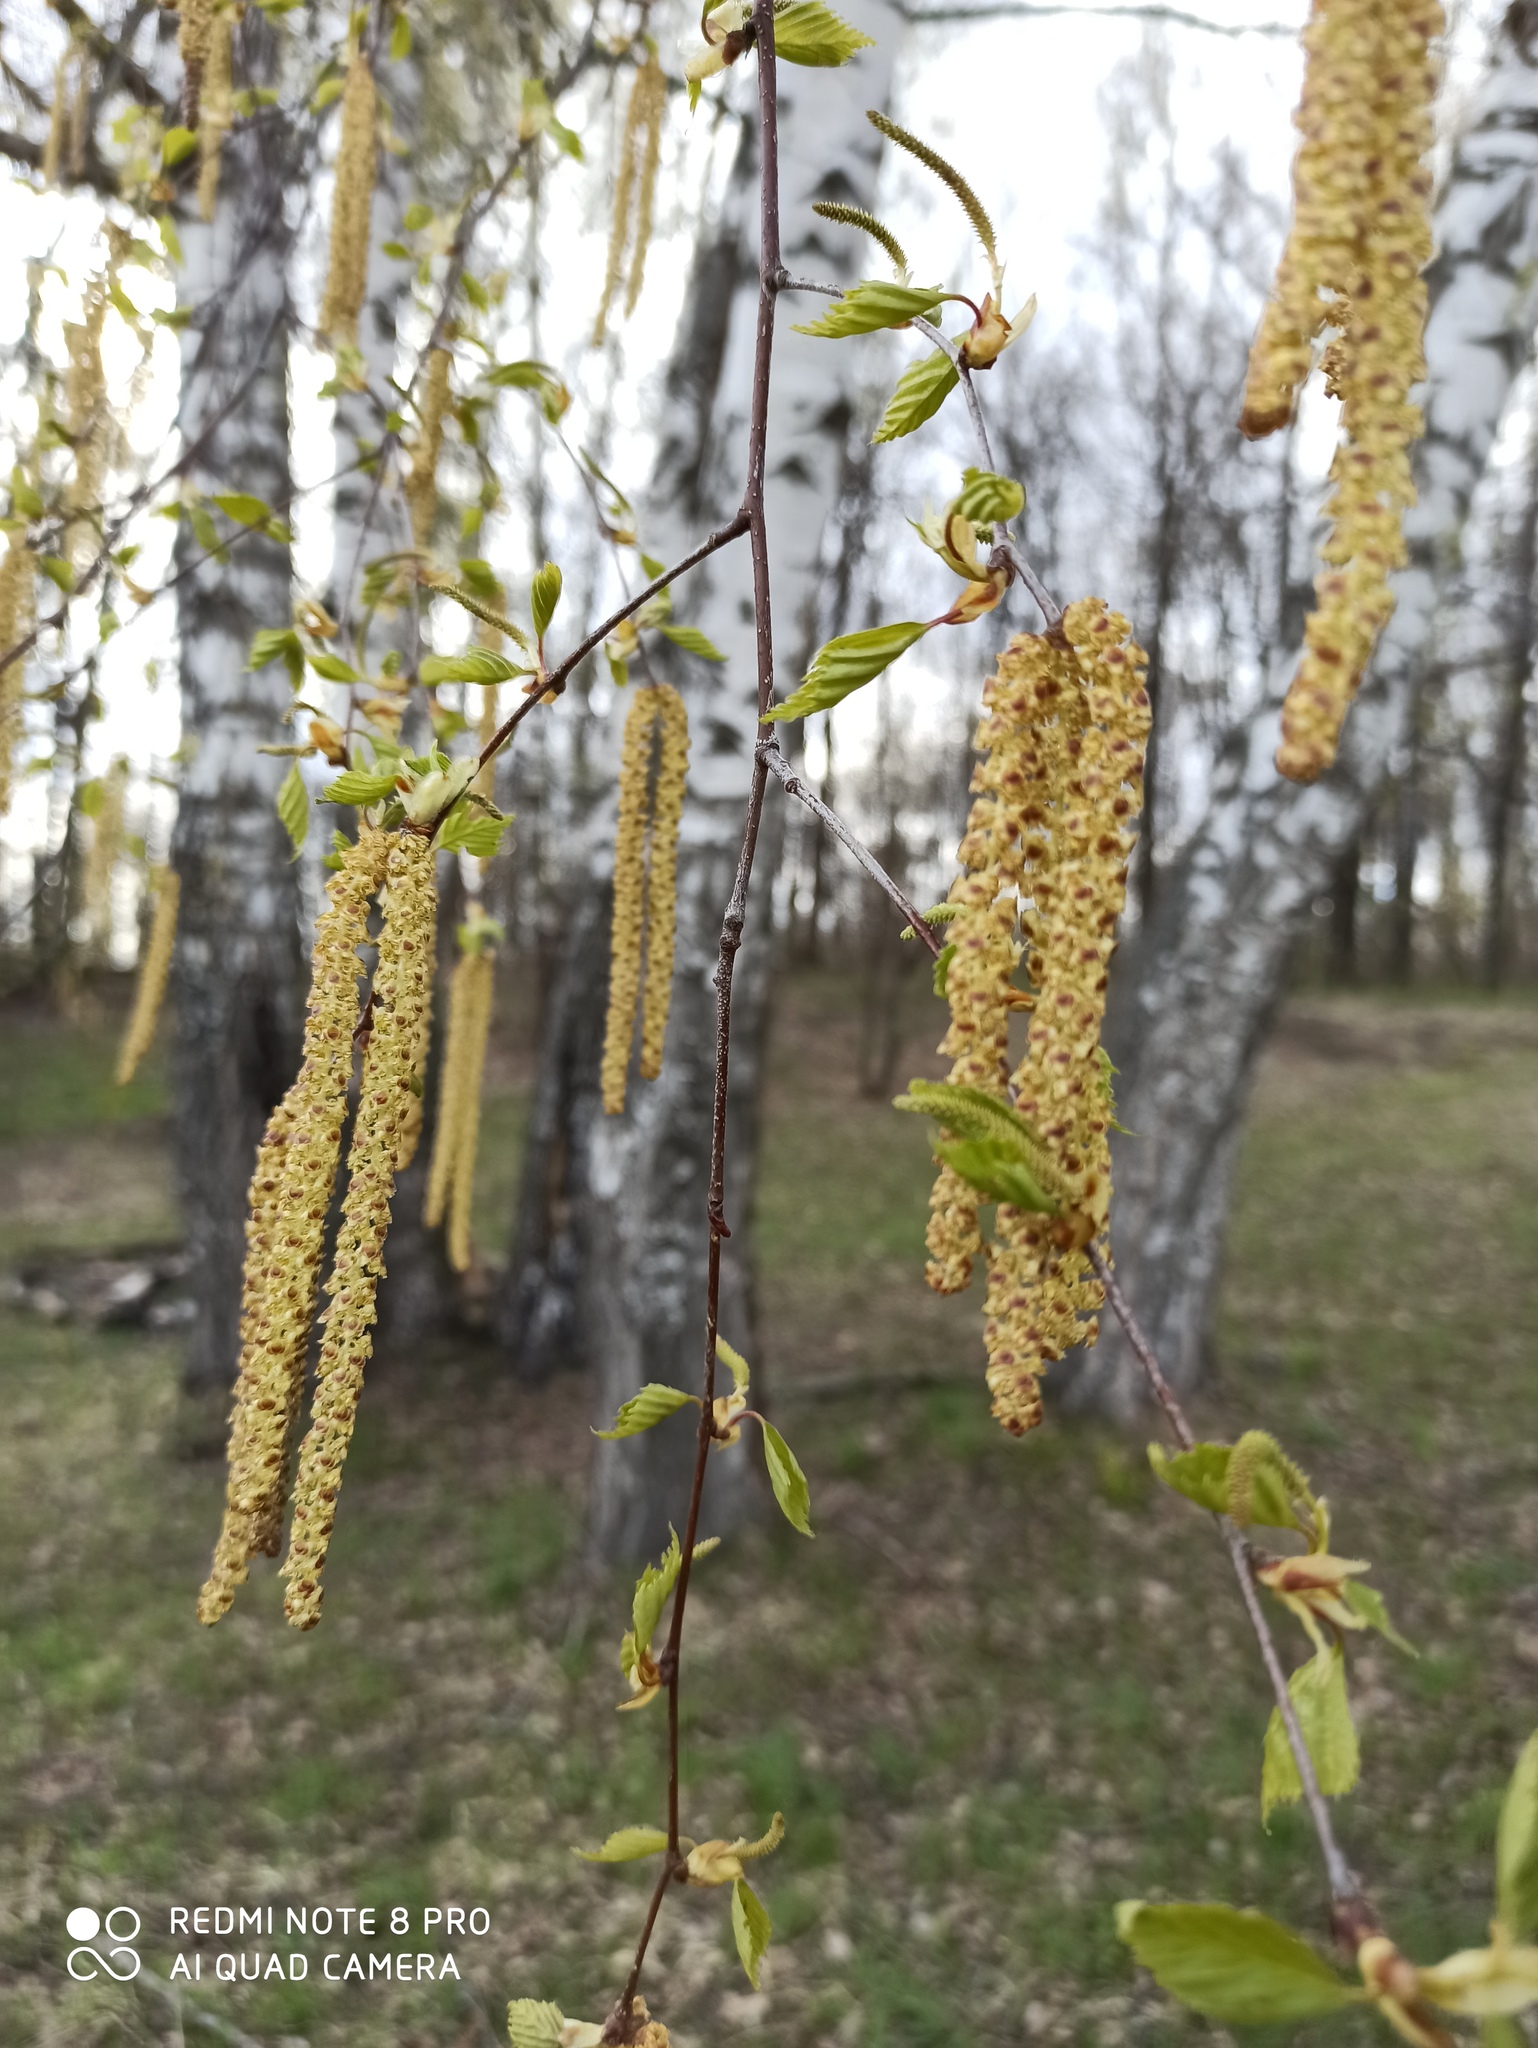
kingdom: Plantae
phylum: Tracheophyta
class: Magnoliopsida
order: Fagales
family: Betulaceae
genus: Betula
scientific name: Betula pendula
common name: Silver birch
